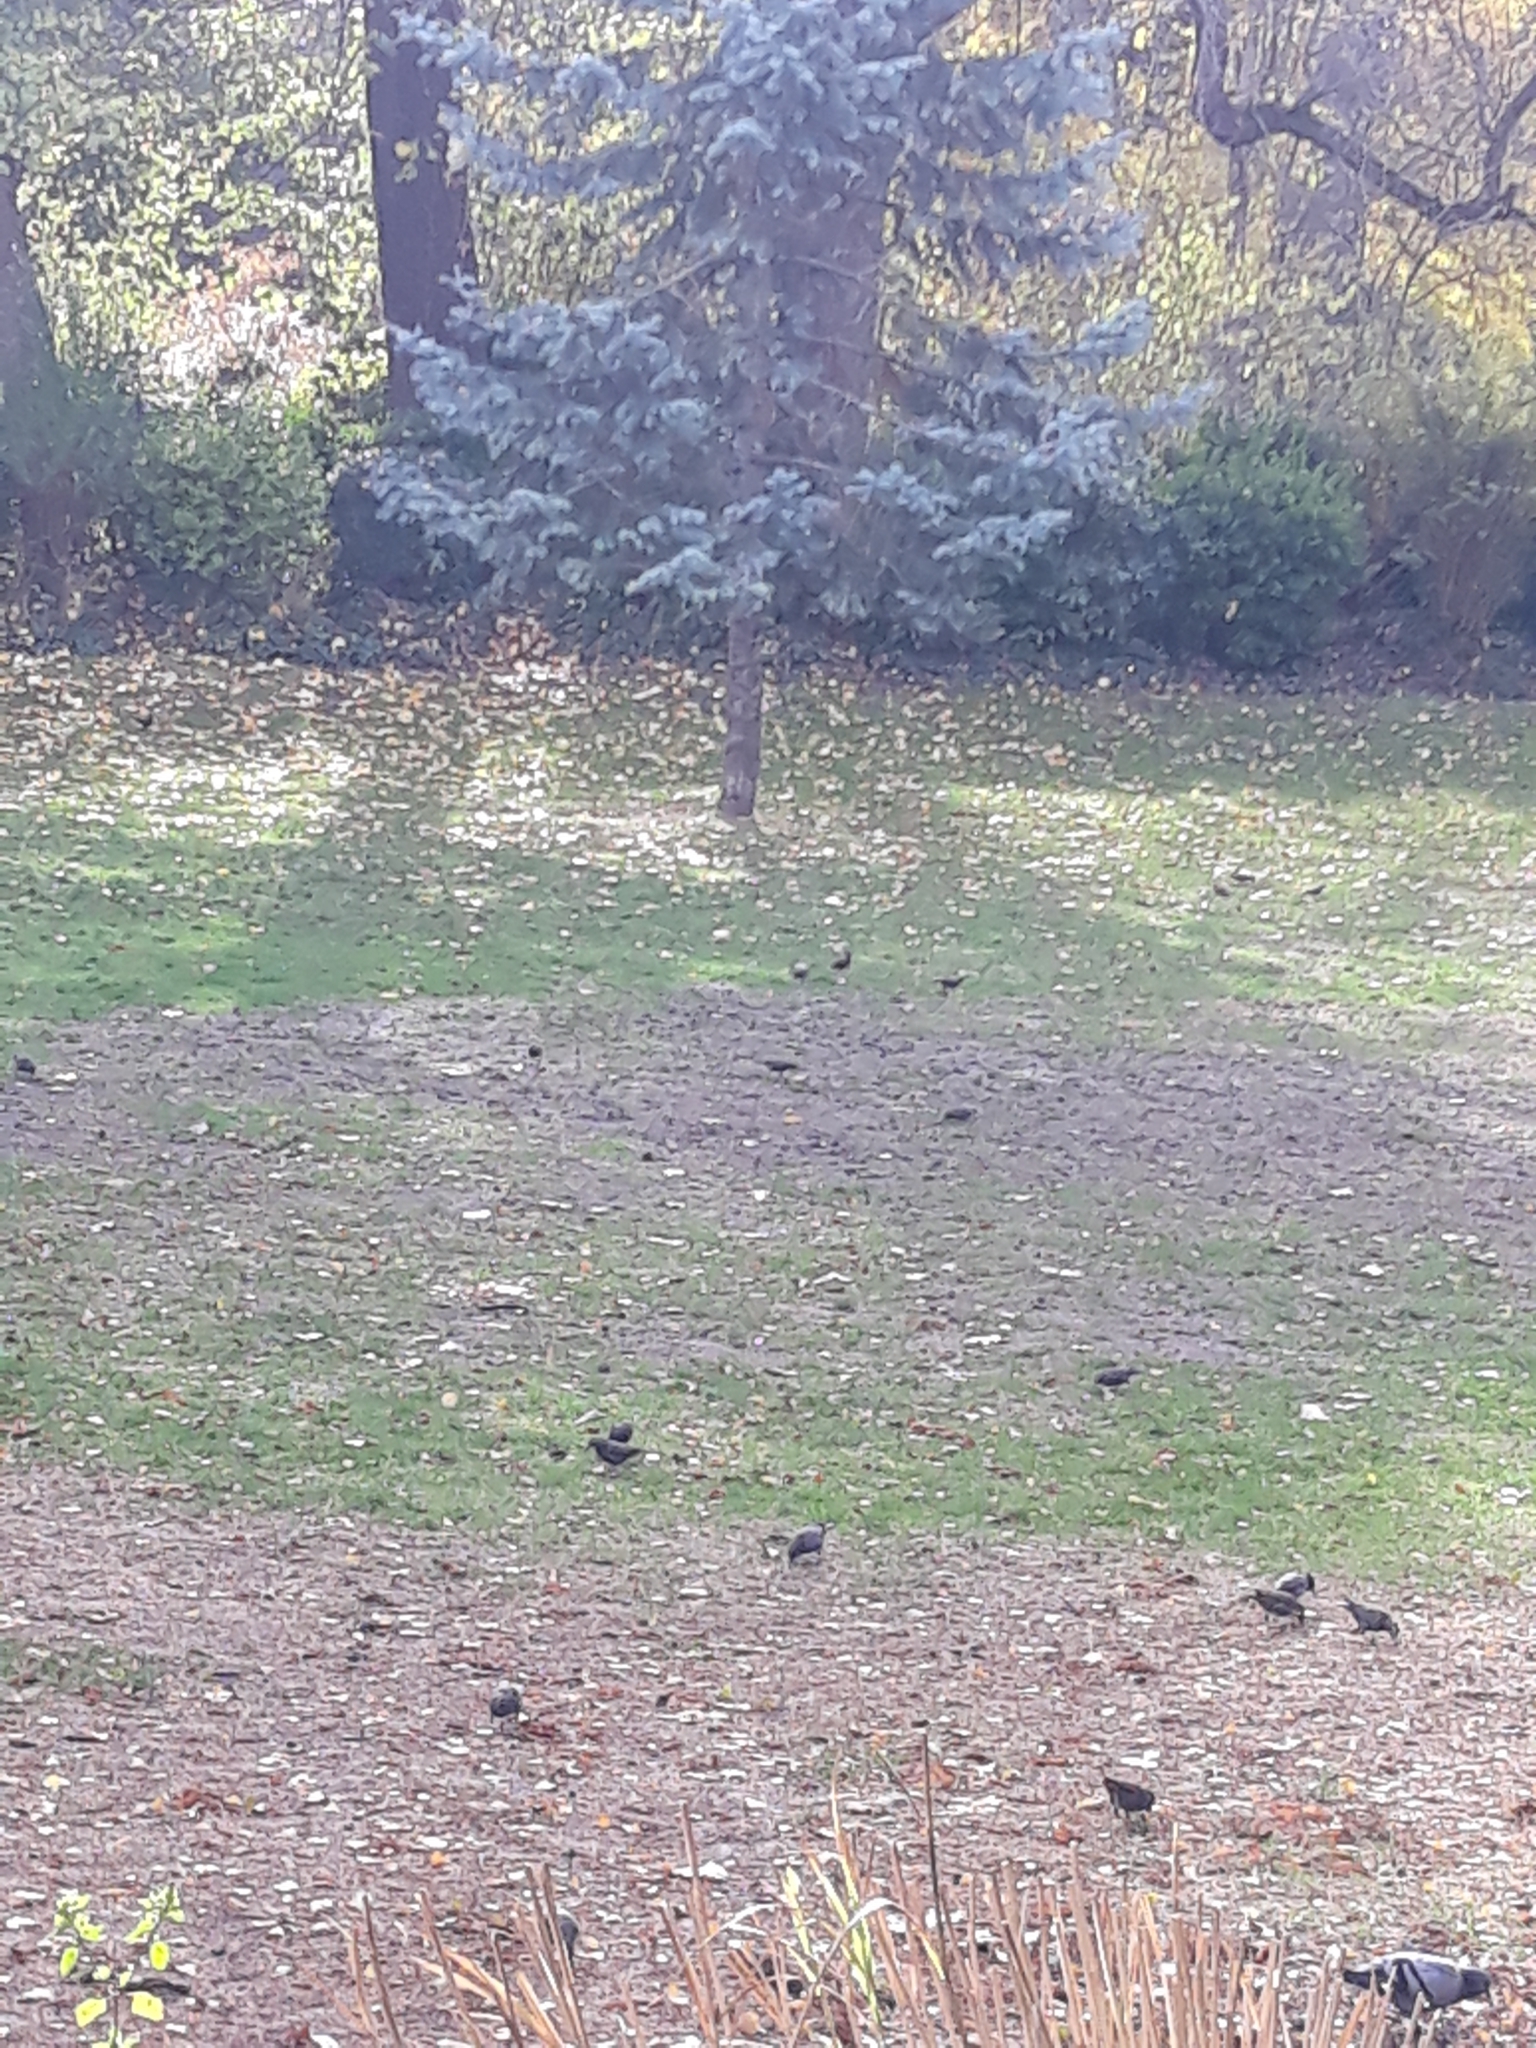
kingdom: Animalia
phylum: Chordata
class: Aves
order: Passeriformes
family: Sturnidae
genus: Sturnus
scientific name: Sturnus vulgaris
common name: Common starling
